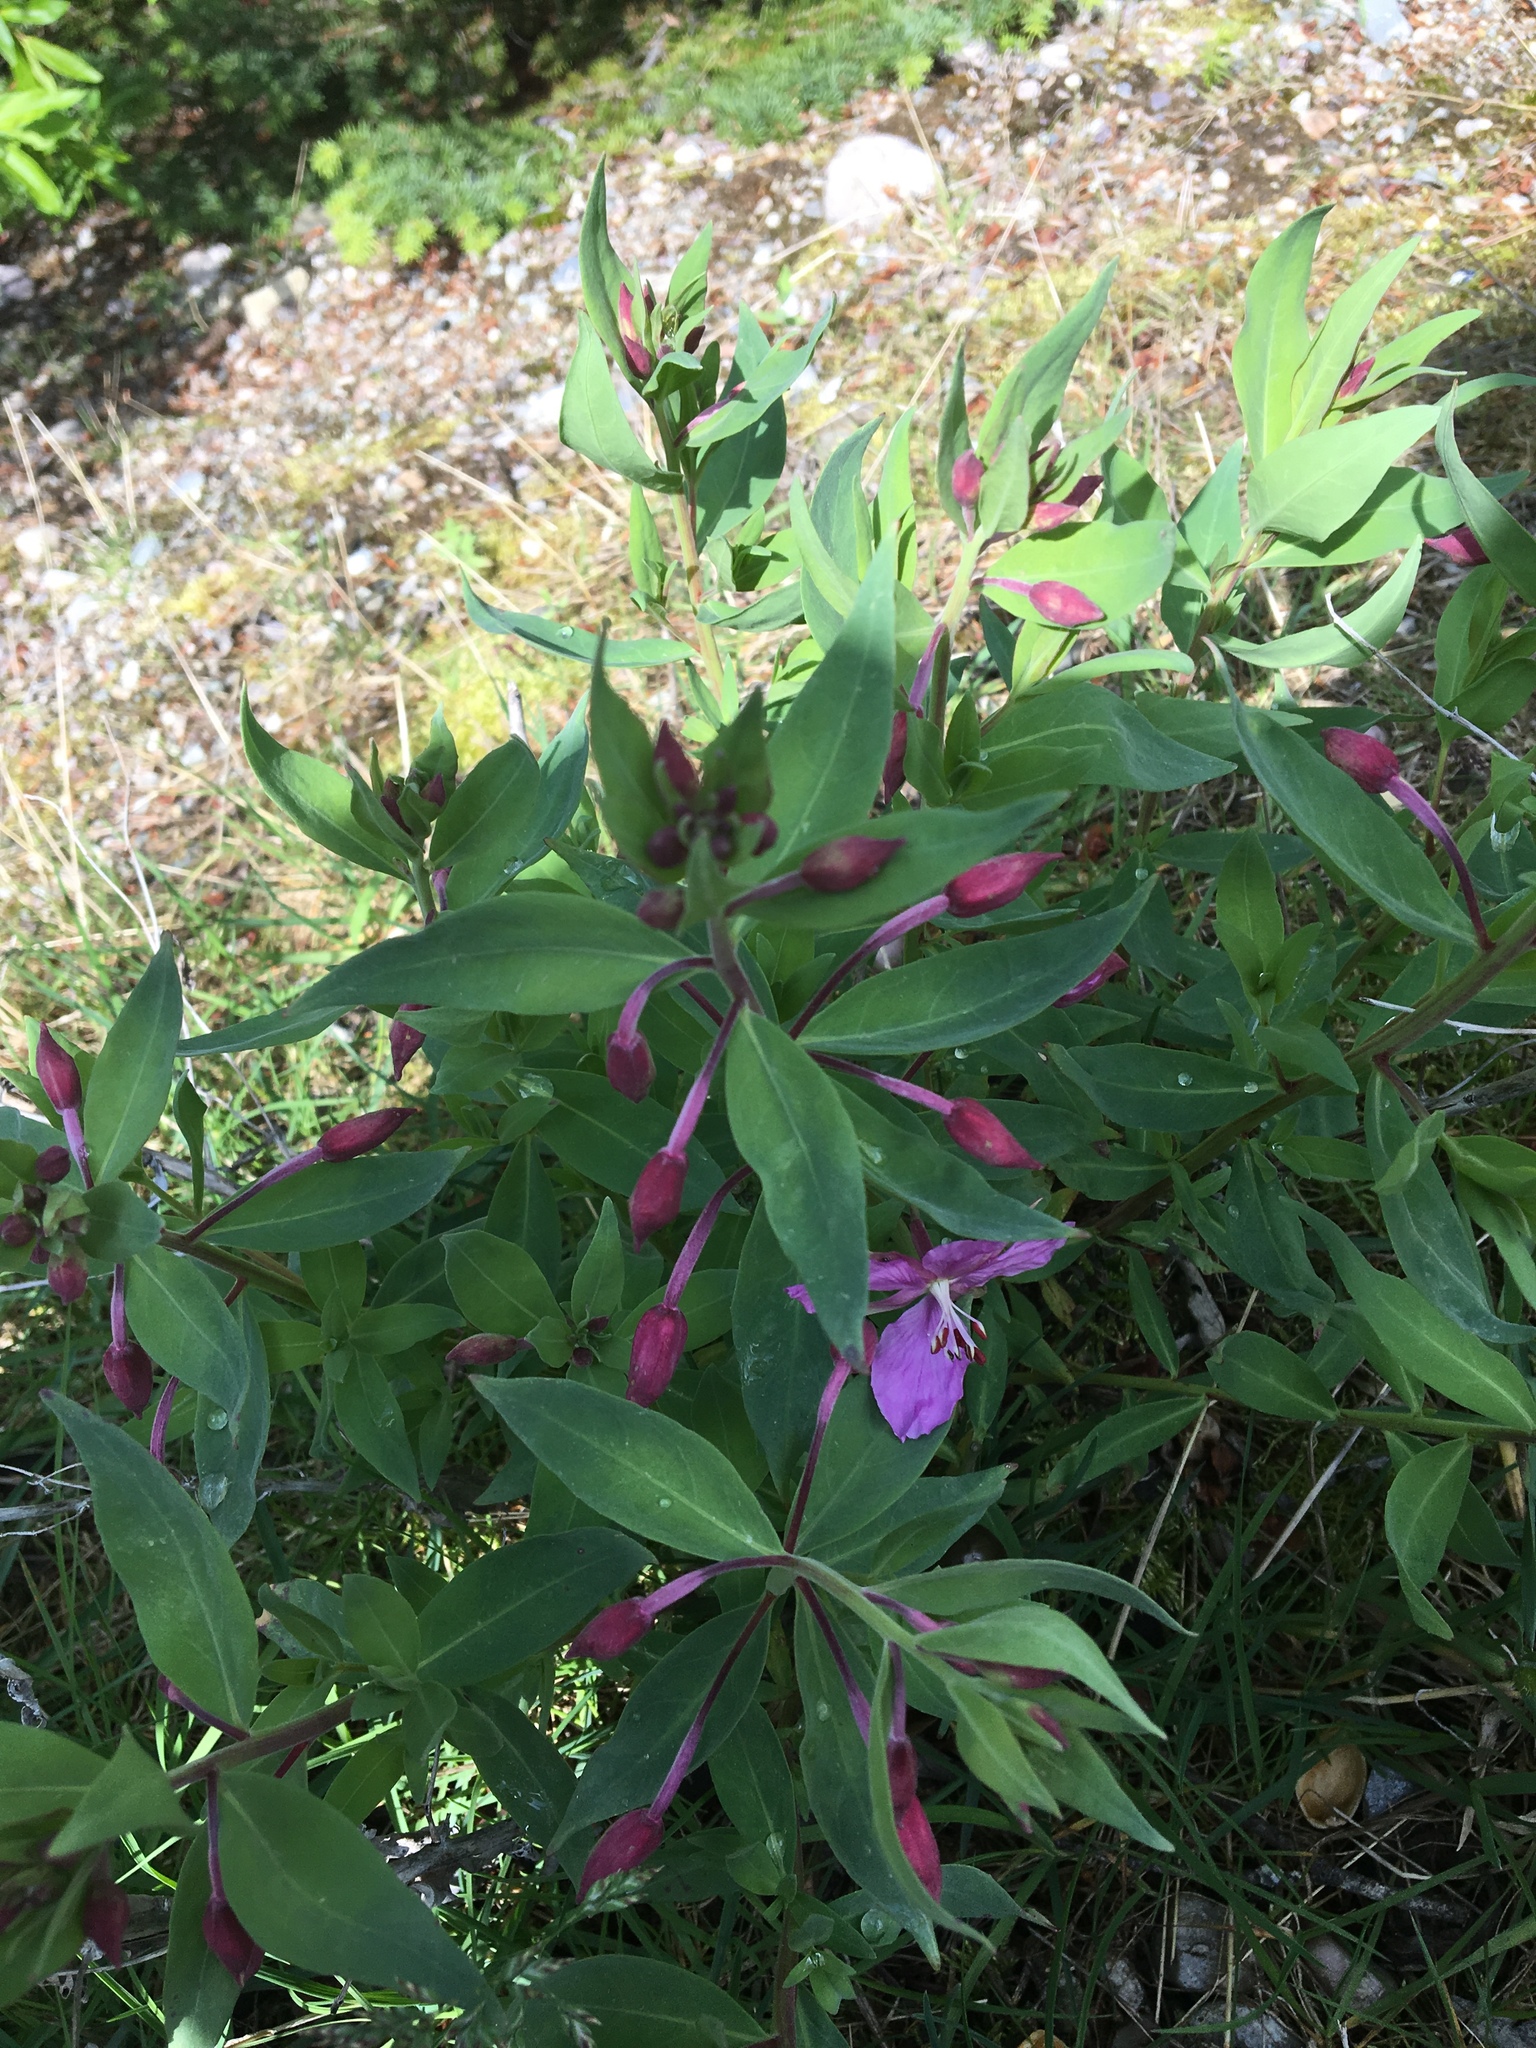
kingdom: Plantae
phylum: Tracheophyta
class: Magnoliopsida
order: Myrtales
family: Onagraceae
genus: Chamaenerion
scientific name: Chamaenerion latifolium
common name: Dwarf fireweed
